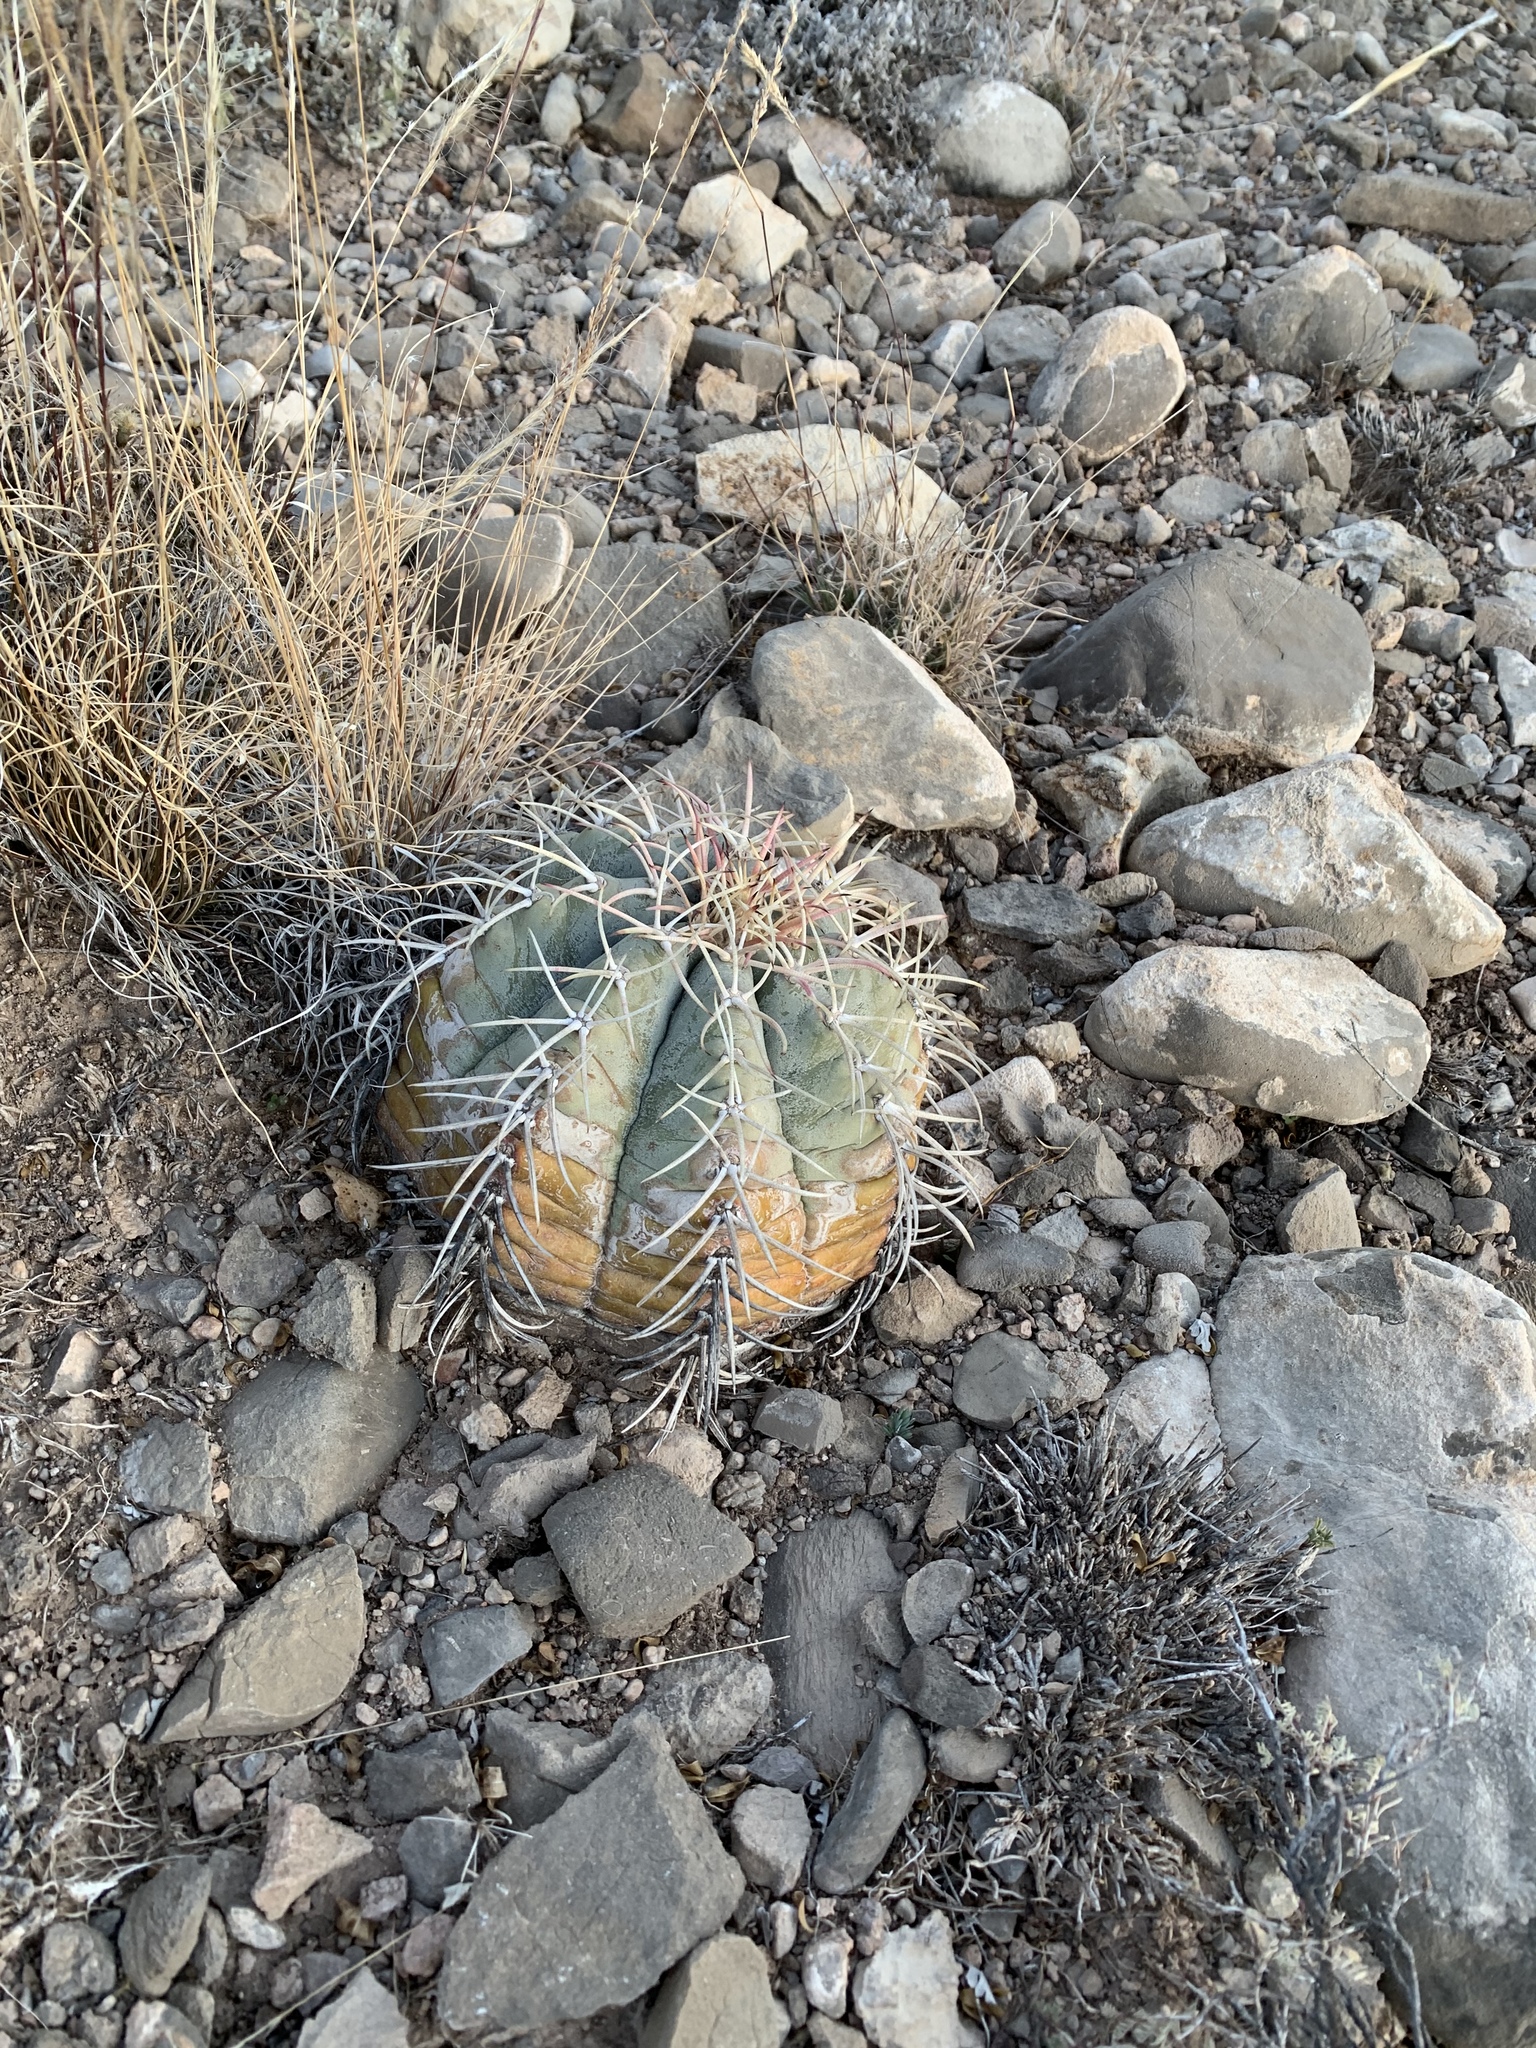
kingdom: Plantae
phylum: Tracheophyta
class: Magnoliopsida
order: Caryophyllales
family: Cactaceae
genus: Echinocactus
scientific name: Echinocactus horizonthalonius
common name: Devilshead
